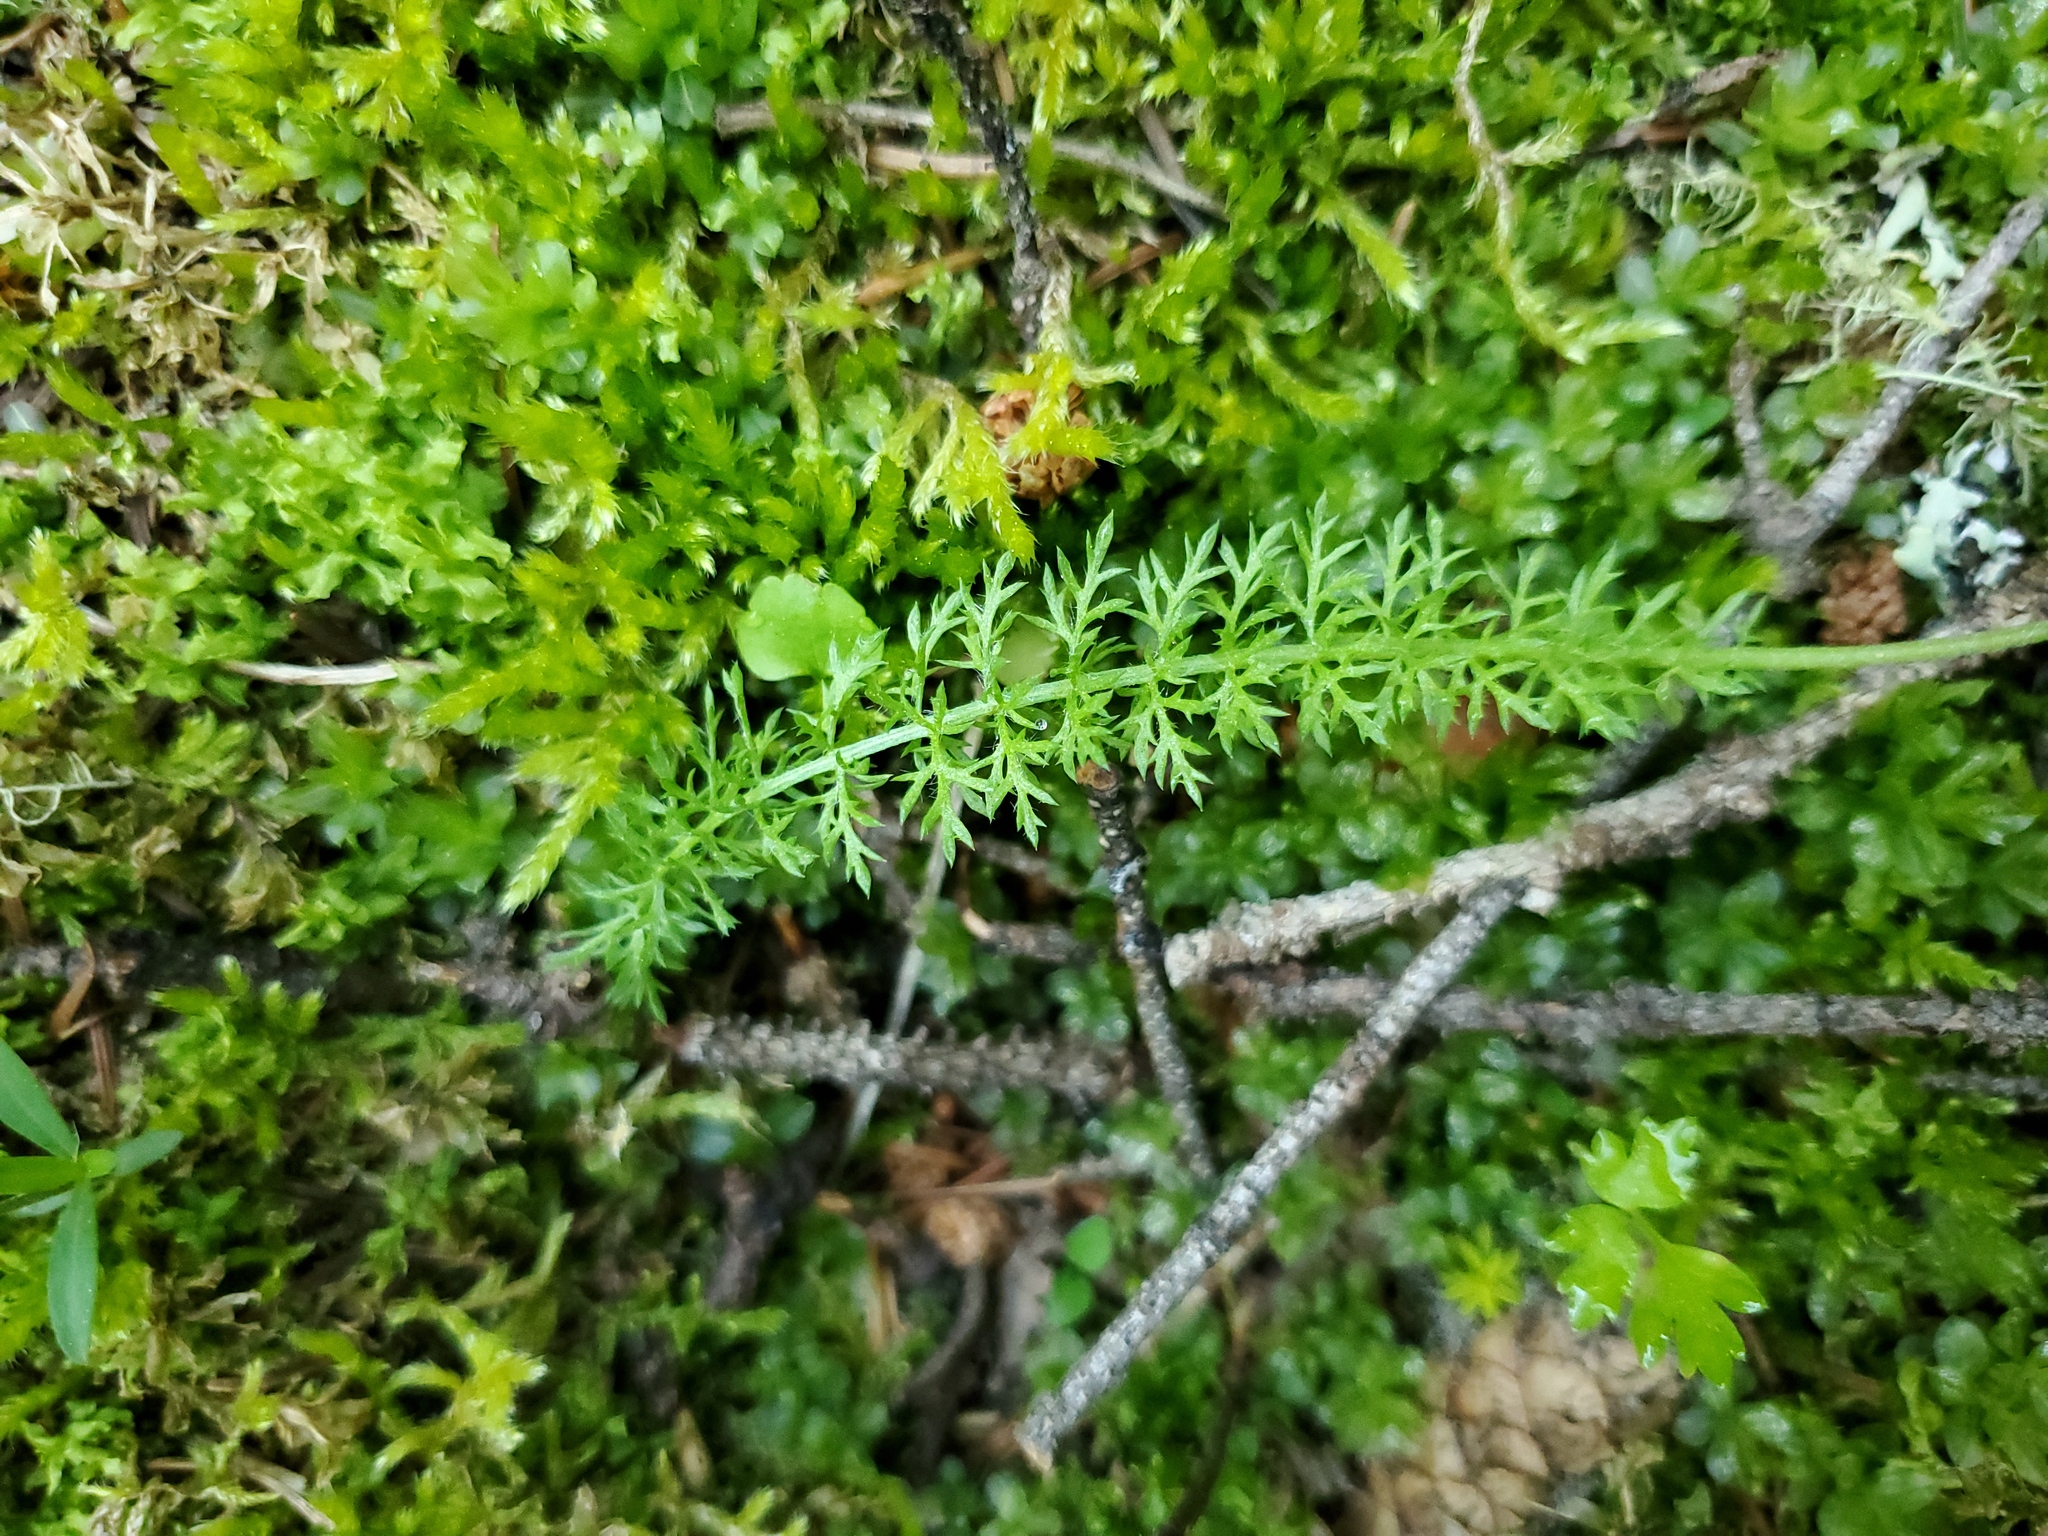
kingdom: Plantae
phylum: Tracheophyta
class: Magnoliopsida
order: Asterales
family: Asteraceae
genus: Achillea
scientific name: Achillea millefolium
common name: Yarrow
